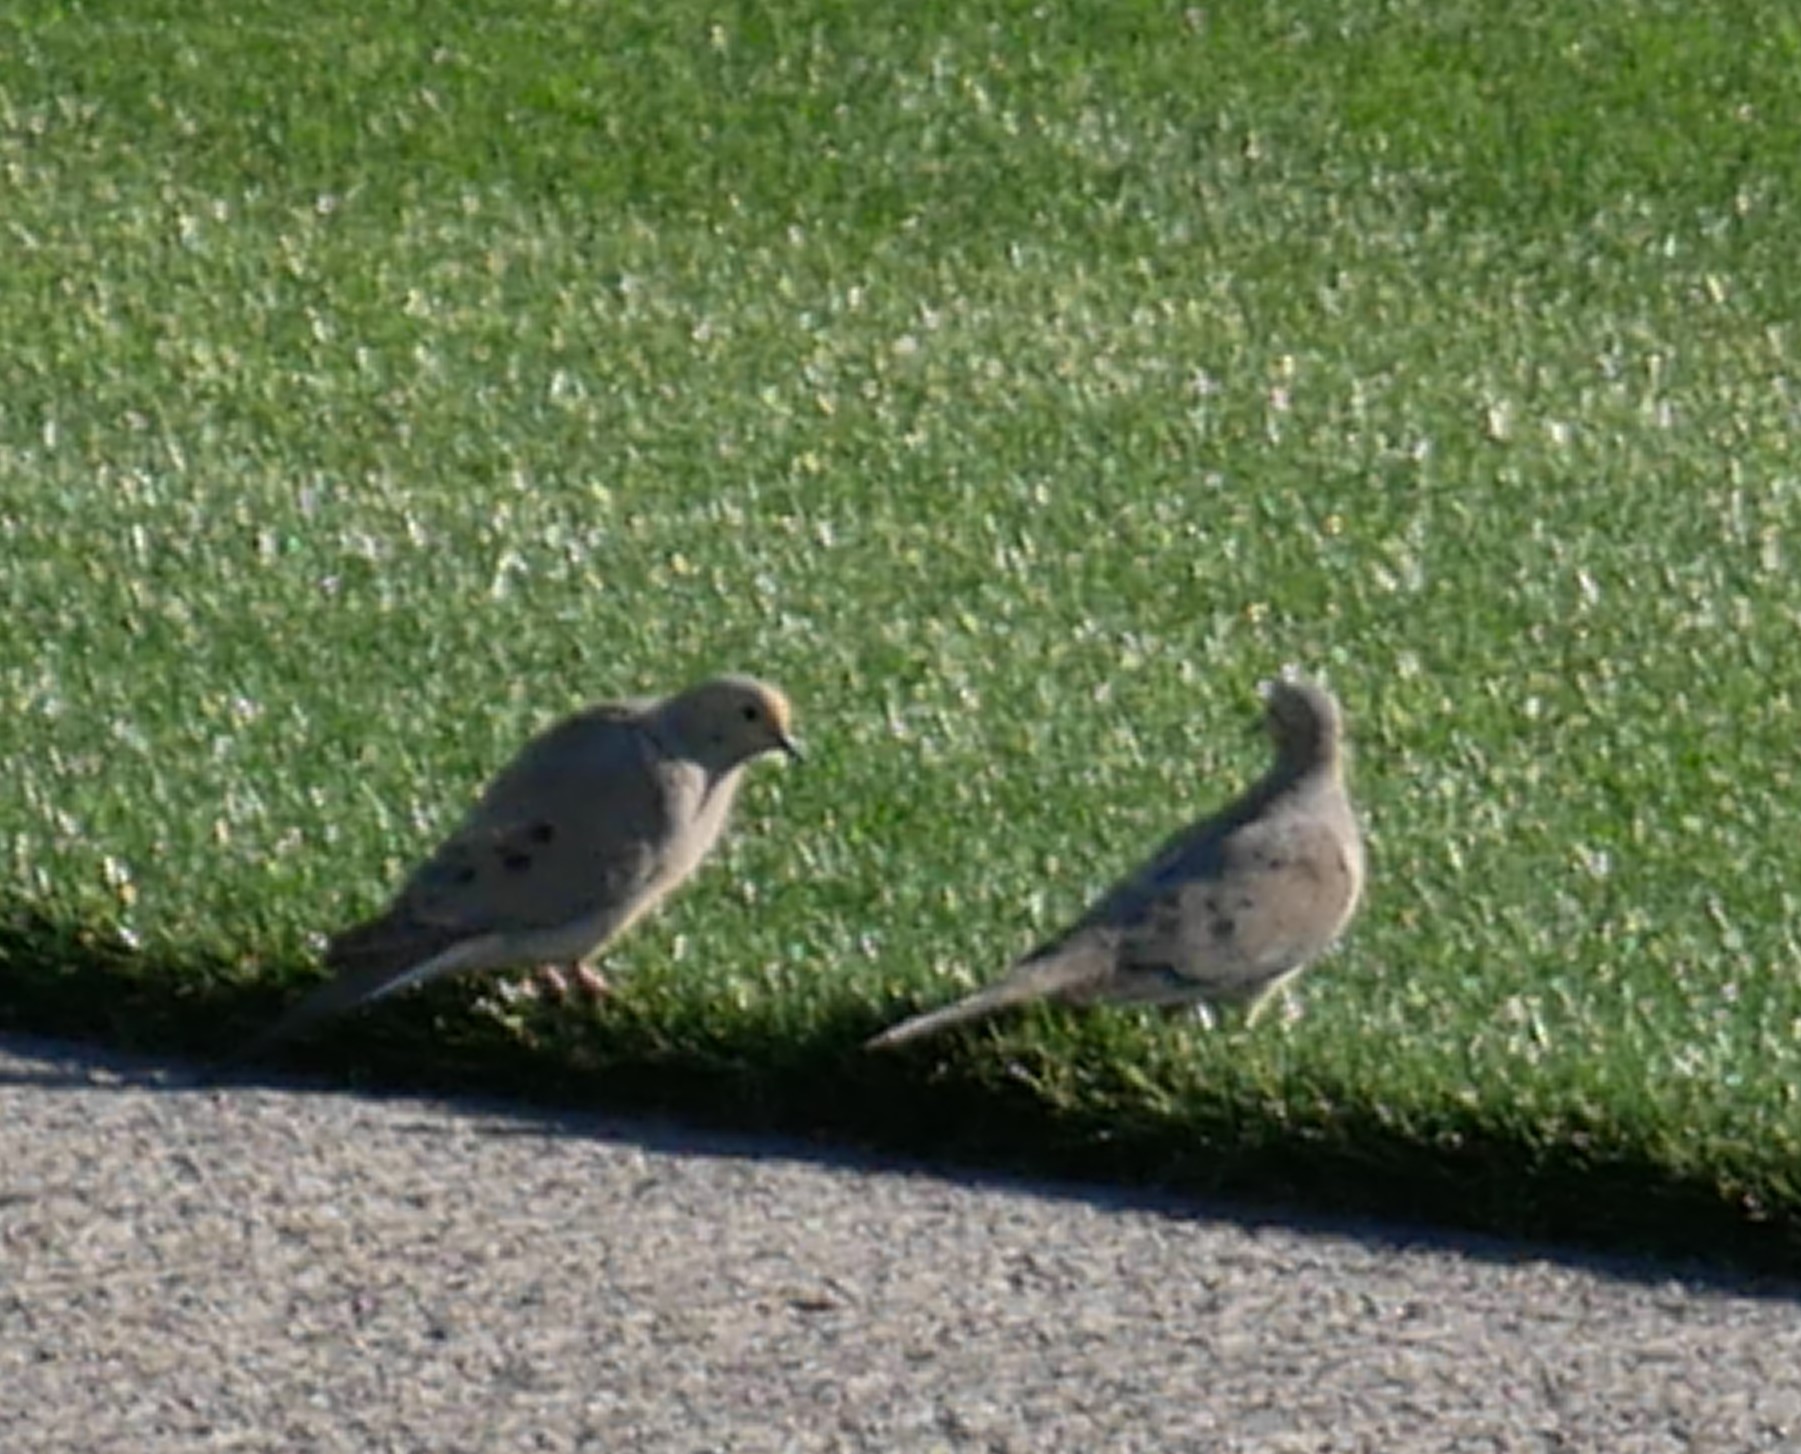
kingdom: Animalia
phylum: Chordata
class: Aves
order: Columbiformes
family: Columbidae
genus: Zenaida
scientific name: Zenaida macroura
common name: Mourning dove
